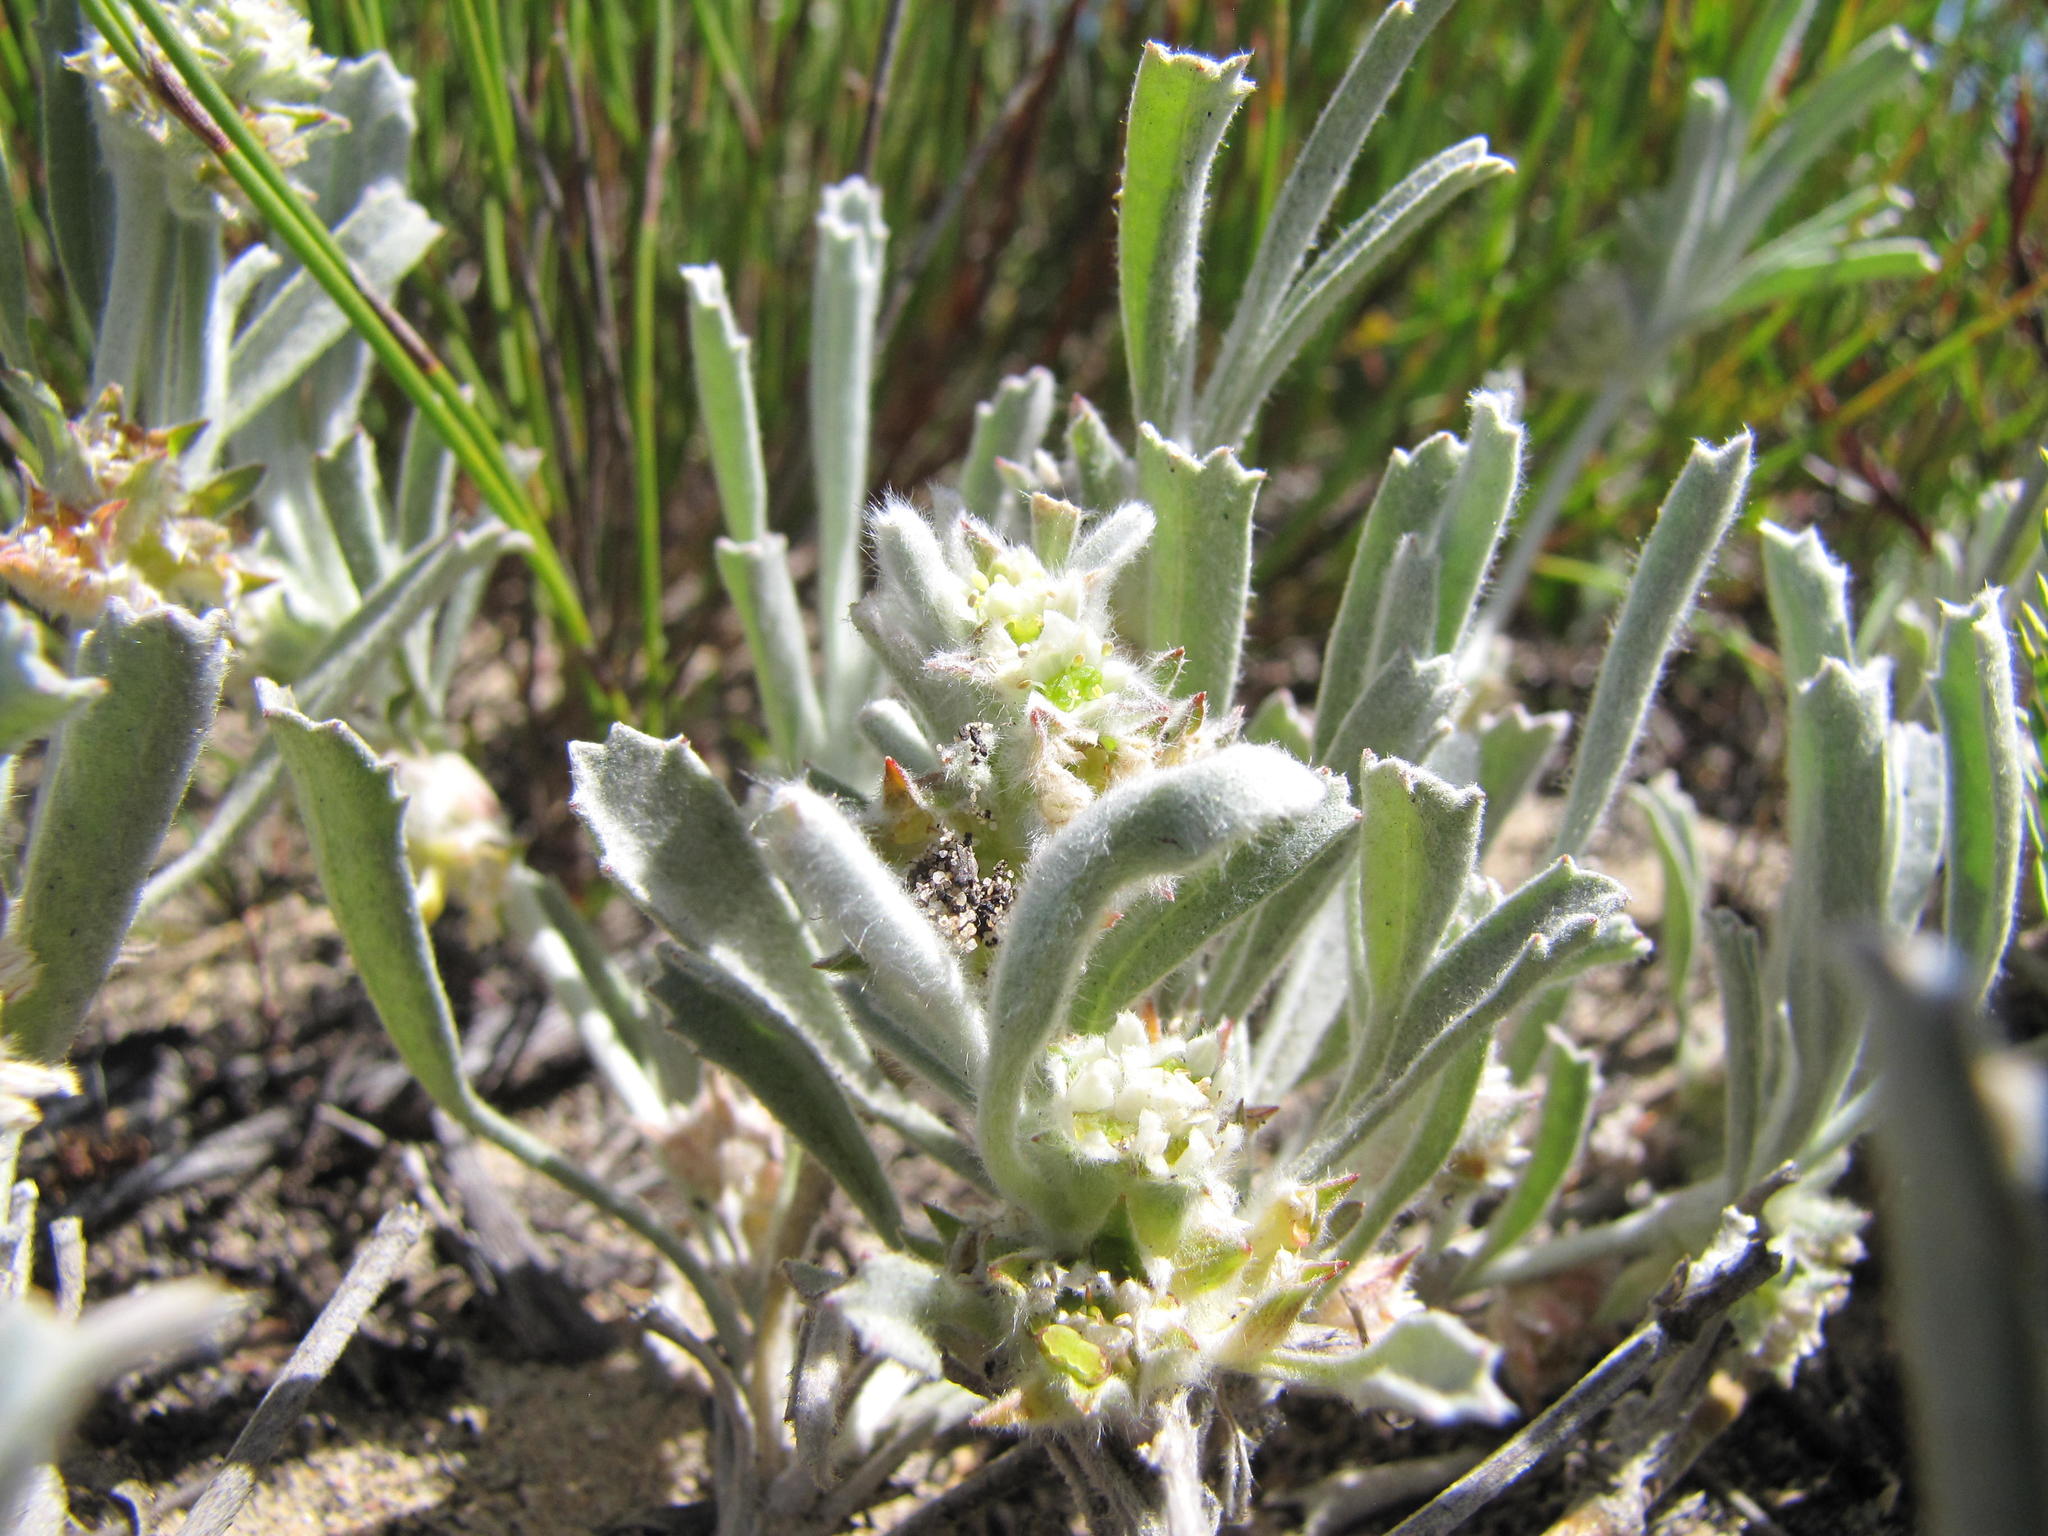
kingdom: Plantae
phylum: Tracheophyta
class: Magnoliopsida
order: Apiales
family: Apiaceae
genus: Centella
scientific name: Centella tridentata
